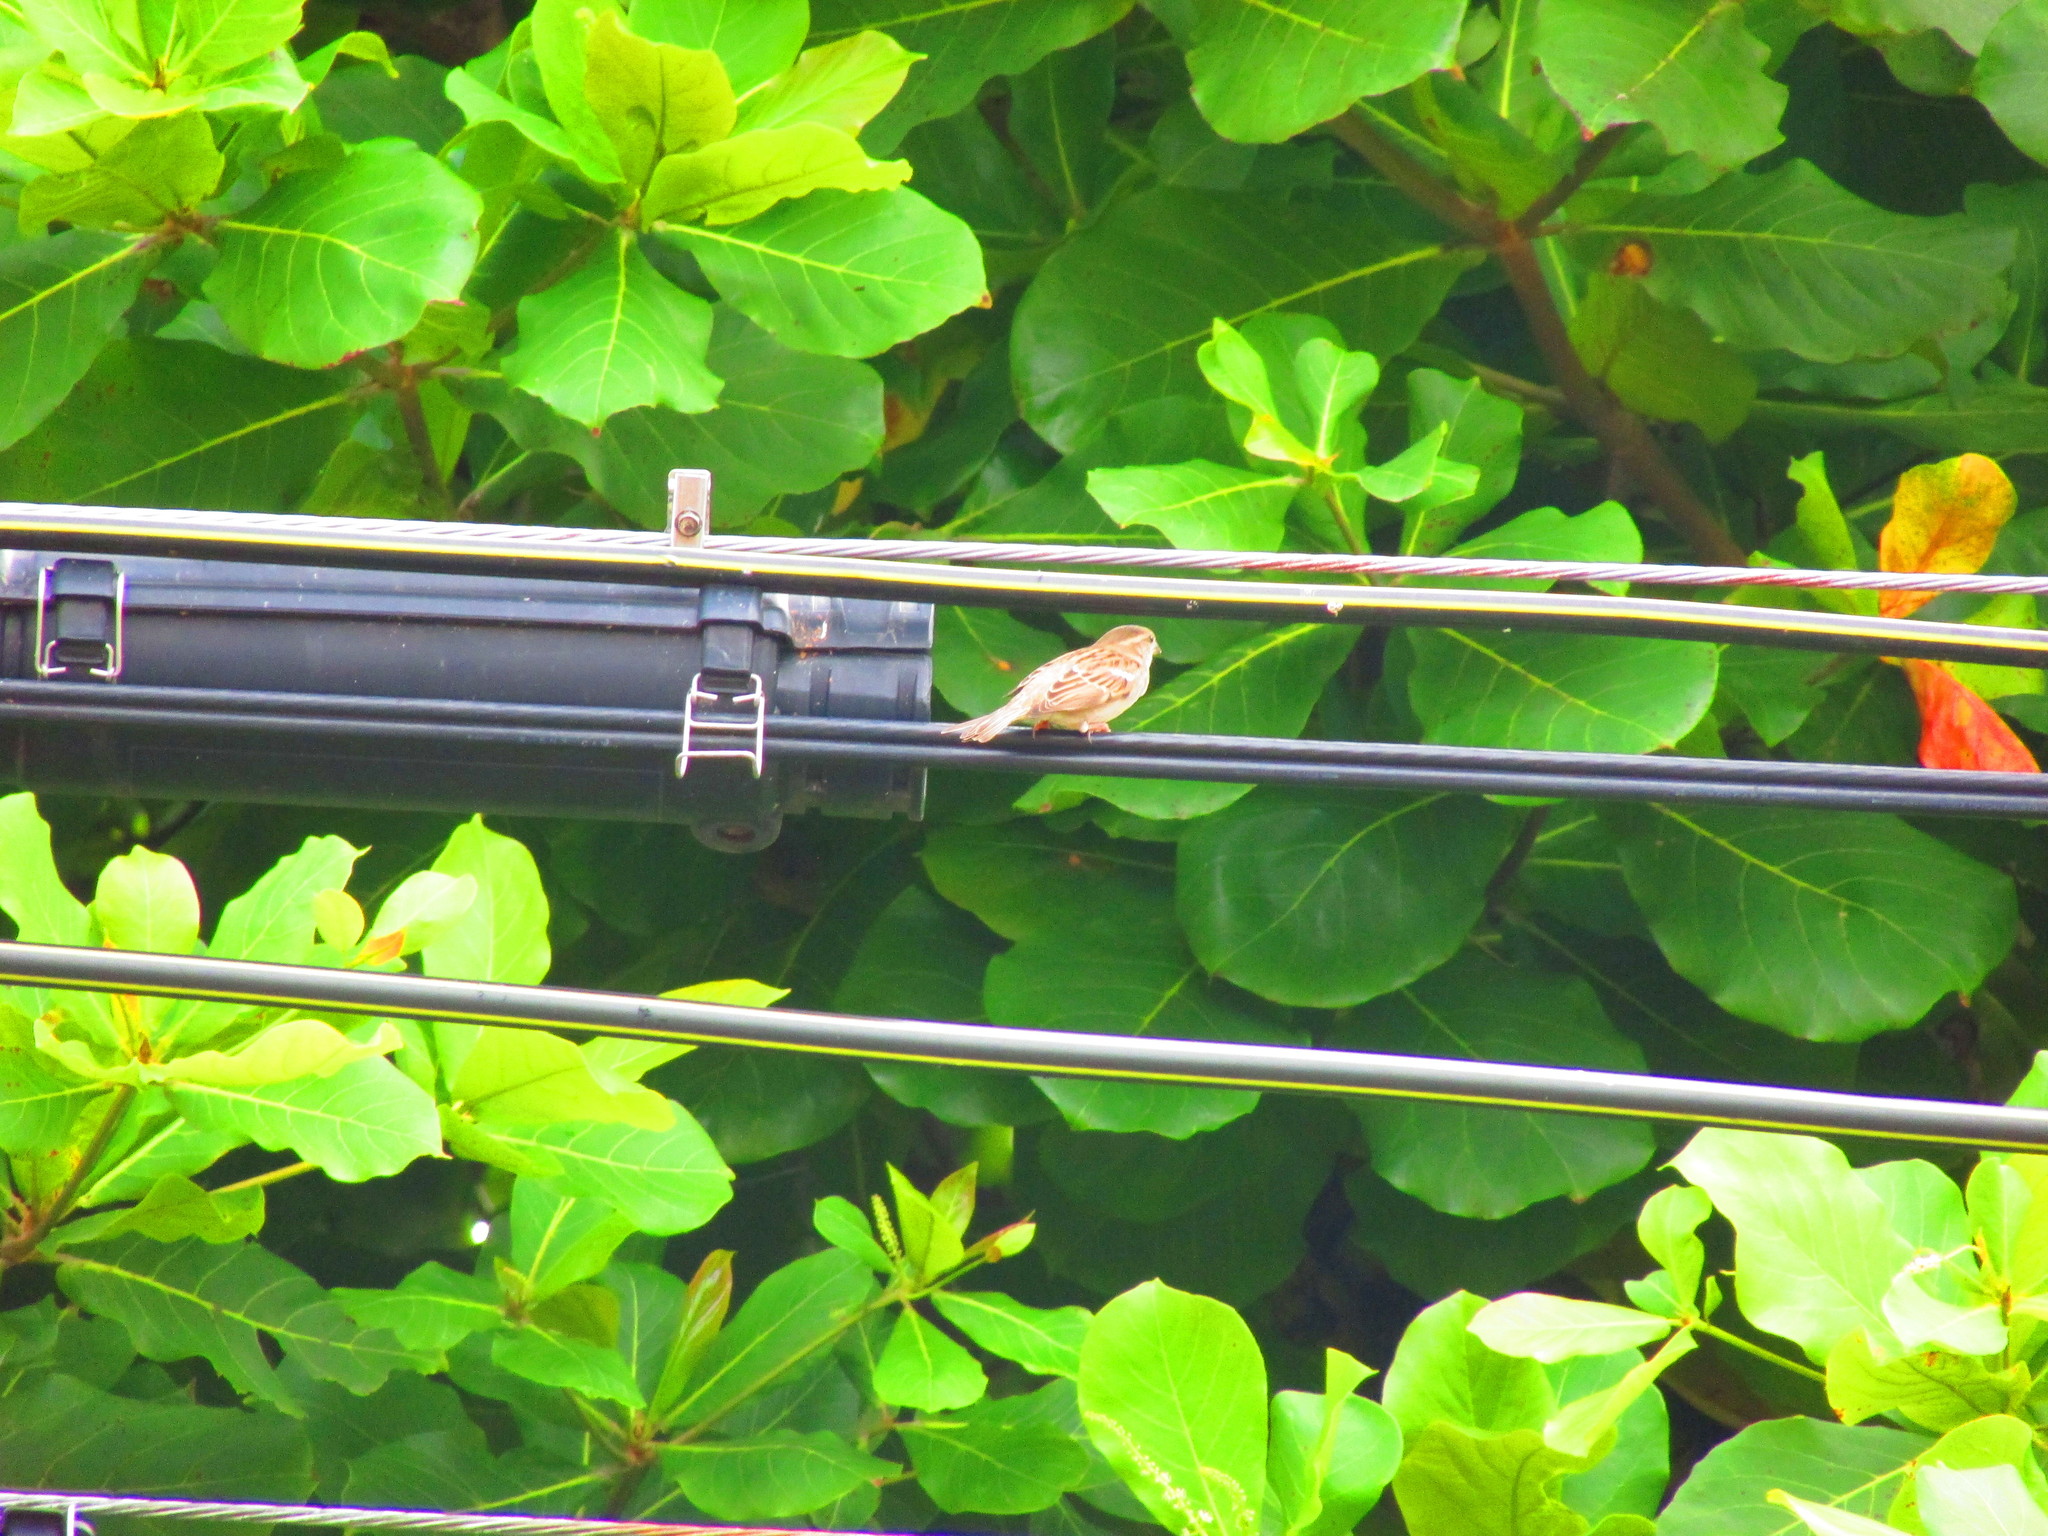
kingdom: Animalia
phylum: Chordata
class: Aves
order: Passeriformes
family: Passeridae
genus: Passer
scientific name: Passer domesticus
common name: House sparrow
